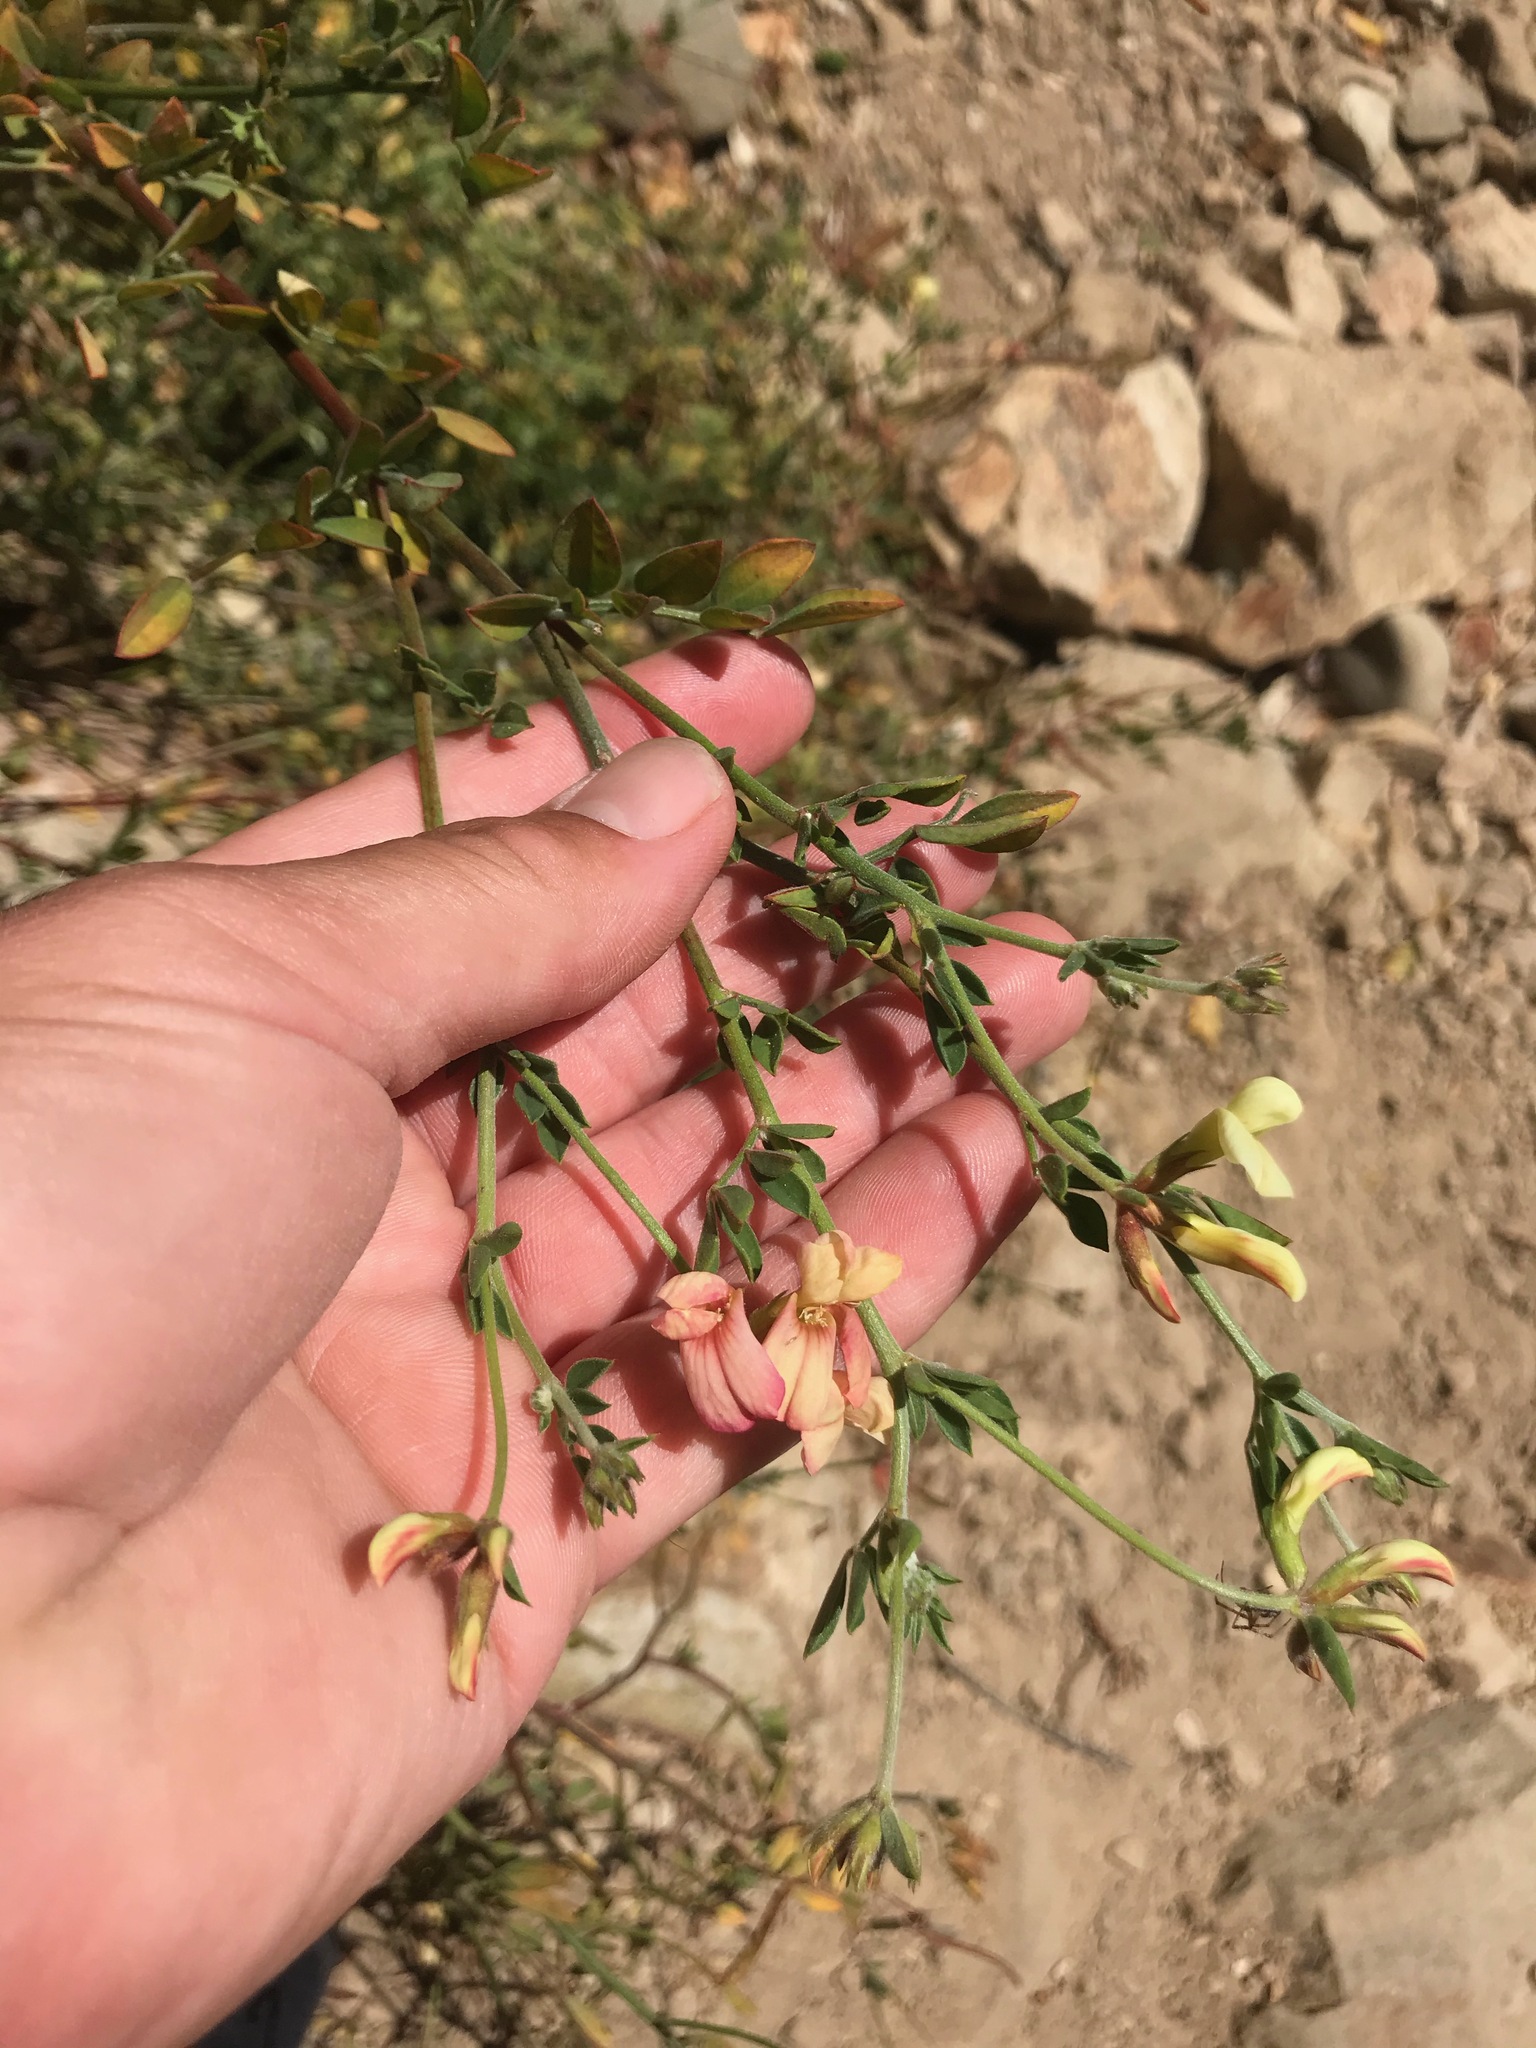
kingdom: Plantae
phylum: Tracheophyta
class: Magnoliopsida
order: Fabales
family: Fabaceae
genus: Acmispon
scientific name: Acmispon grandiflorus
